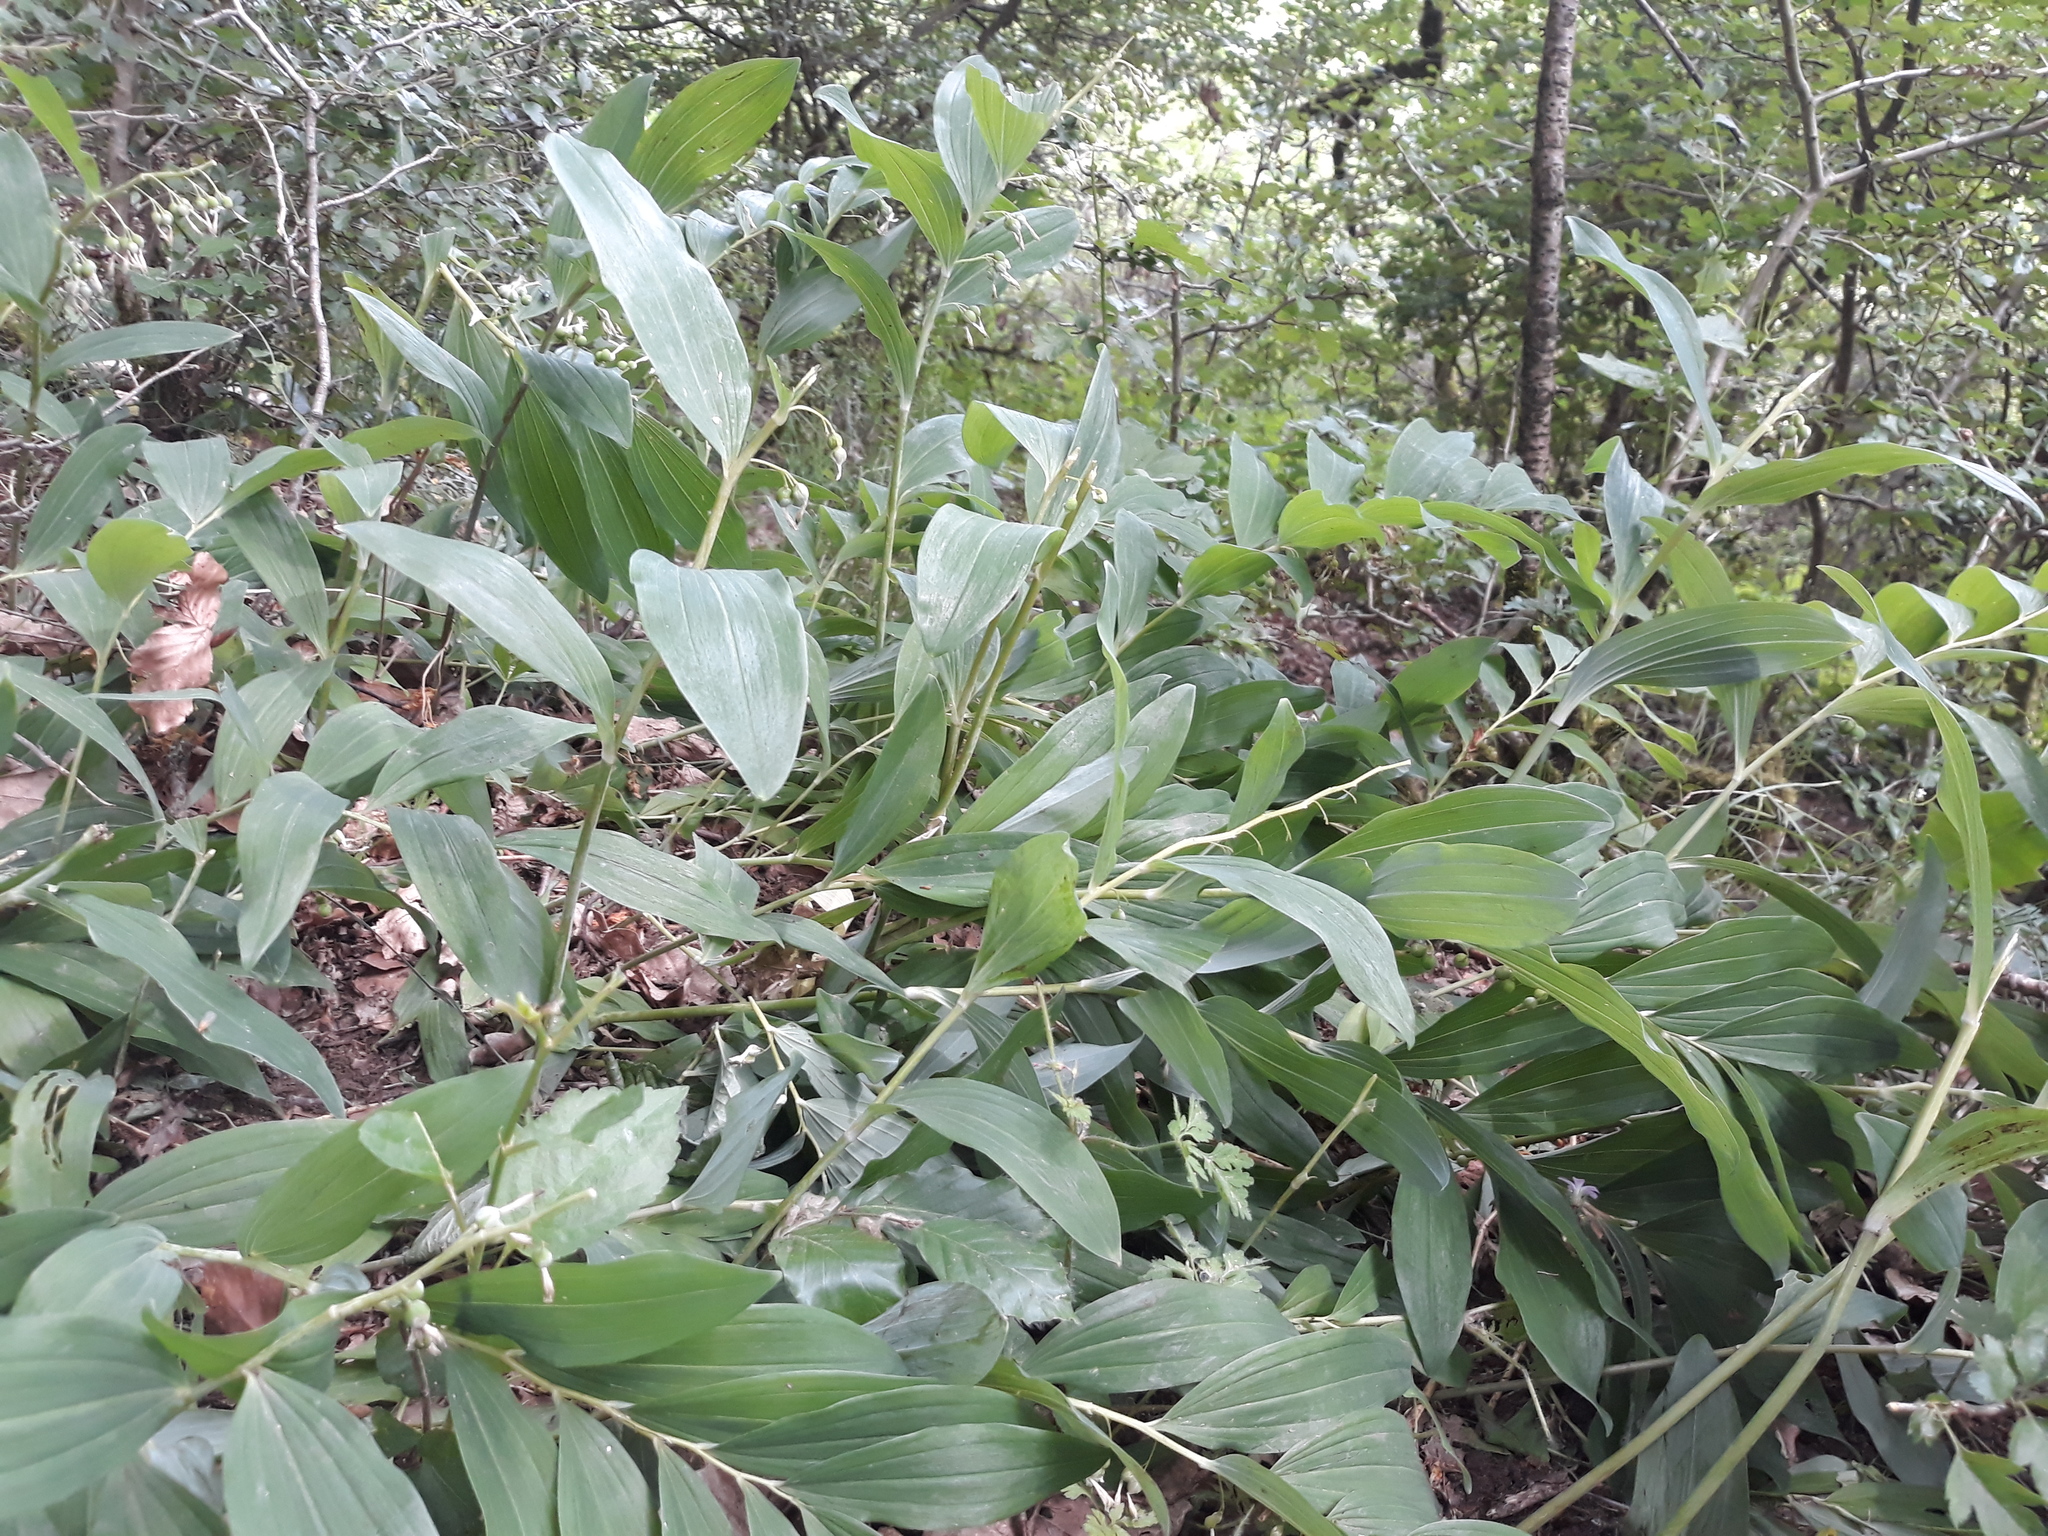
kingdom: Plantae
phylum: Tracheophyta
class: Liliopsida
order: Asparagales
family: Asparagaceae
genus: Polygonatum
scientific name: Polygonatum multiflorum
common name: Solomon's-seal
